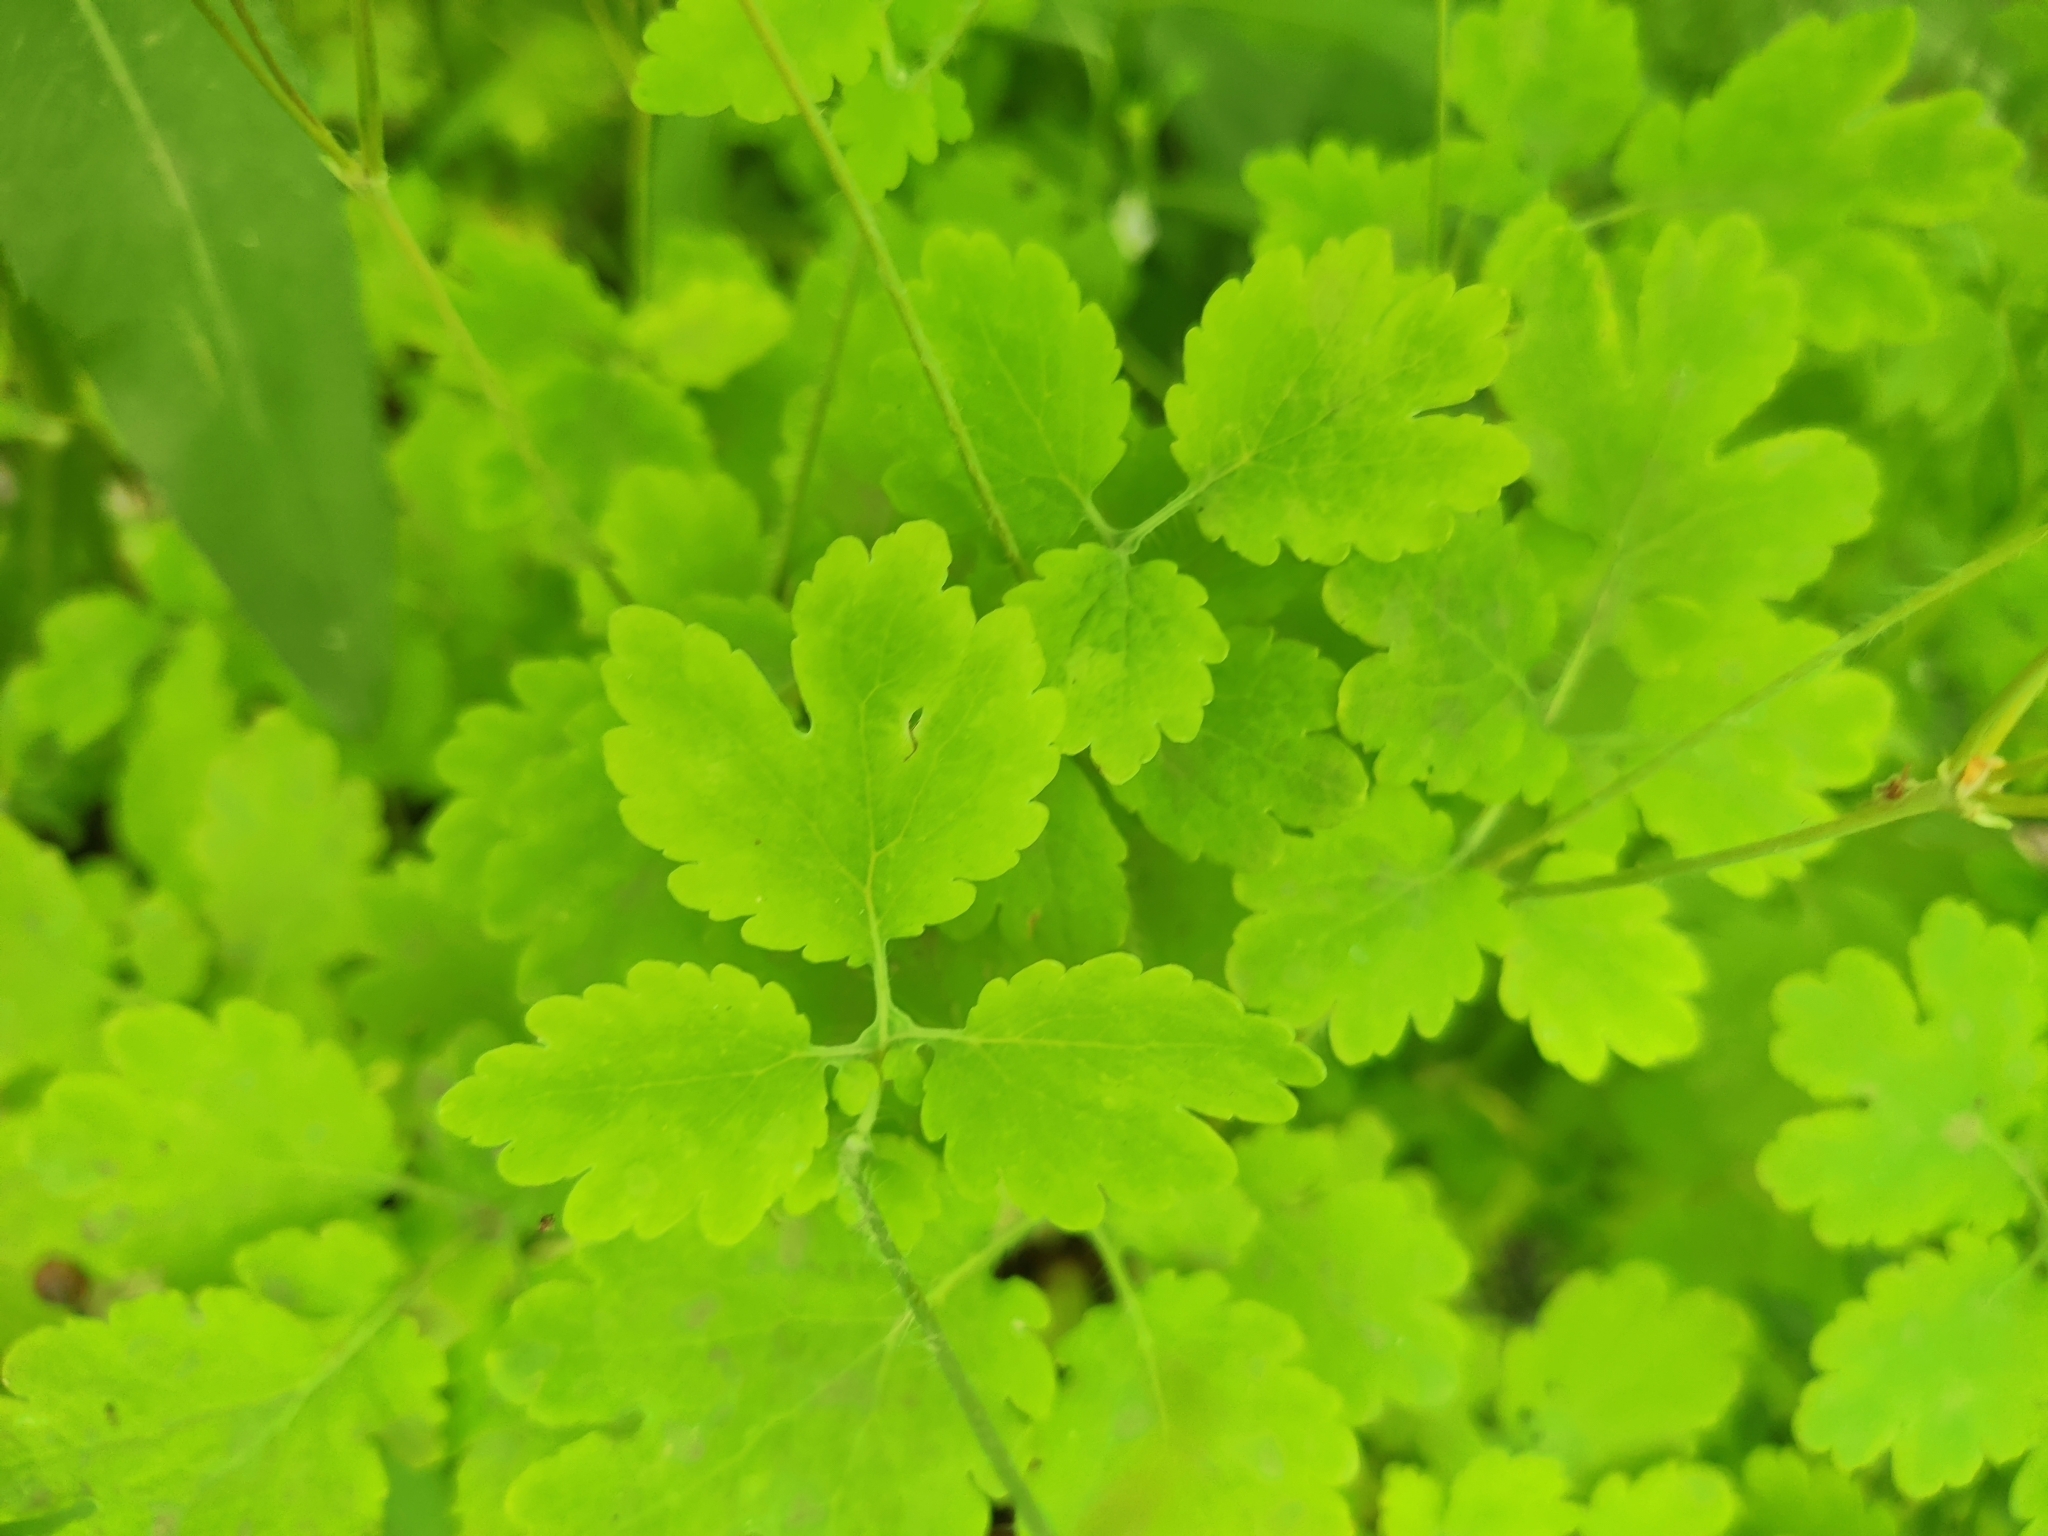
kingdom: Plantae
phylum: Tracheophyta
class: Magnoliopsida
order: Ranunculales
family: Papaveraceae
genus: Chelidonium
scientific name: Chelidonium majus
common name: Greater celandine
